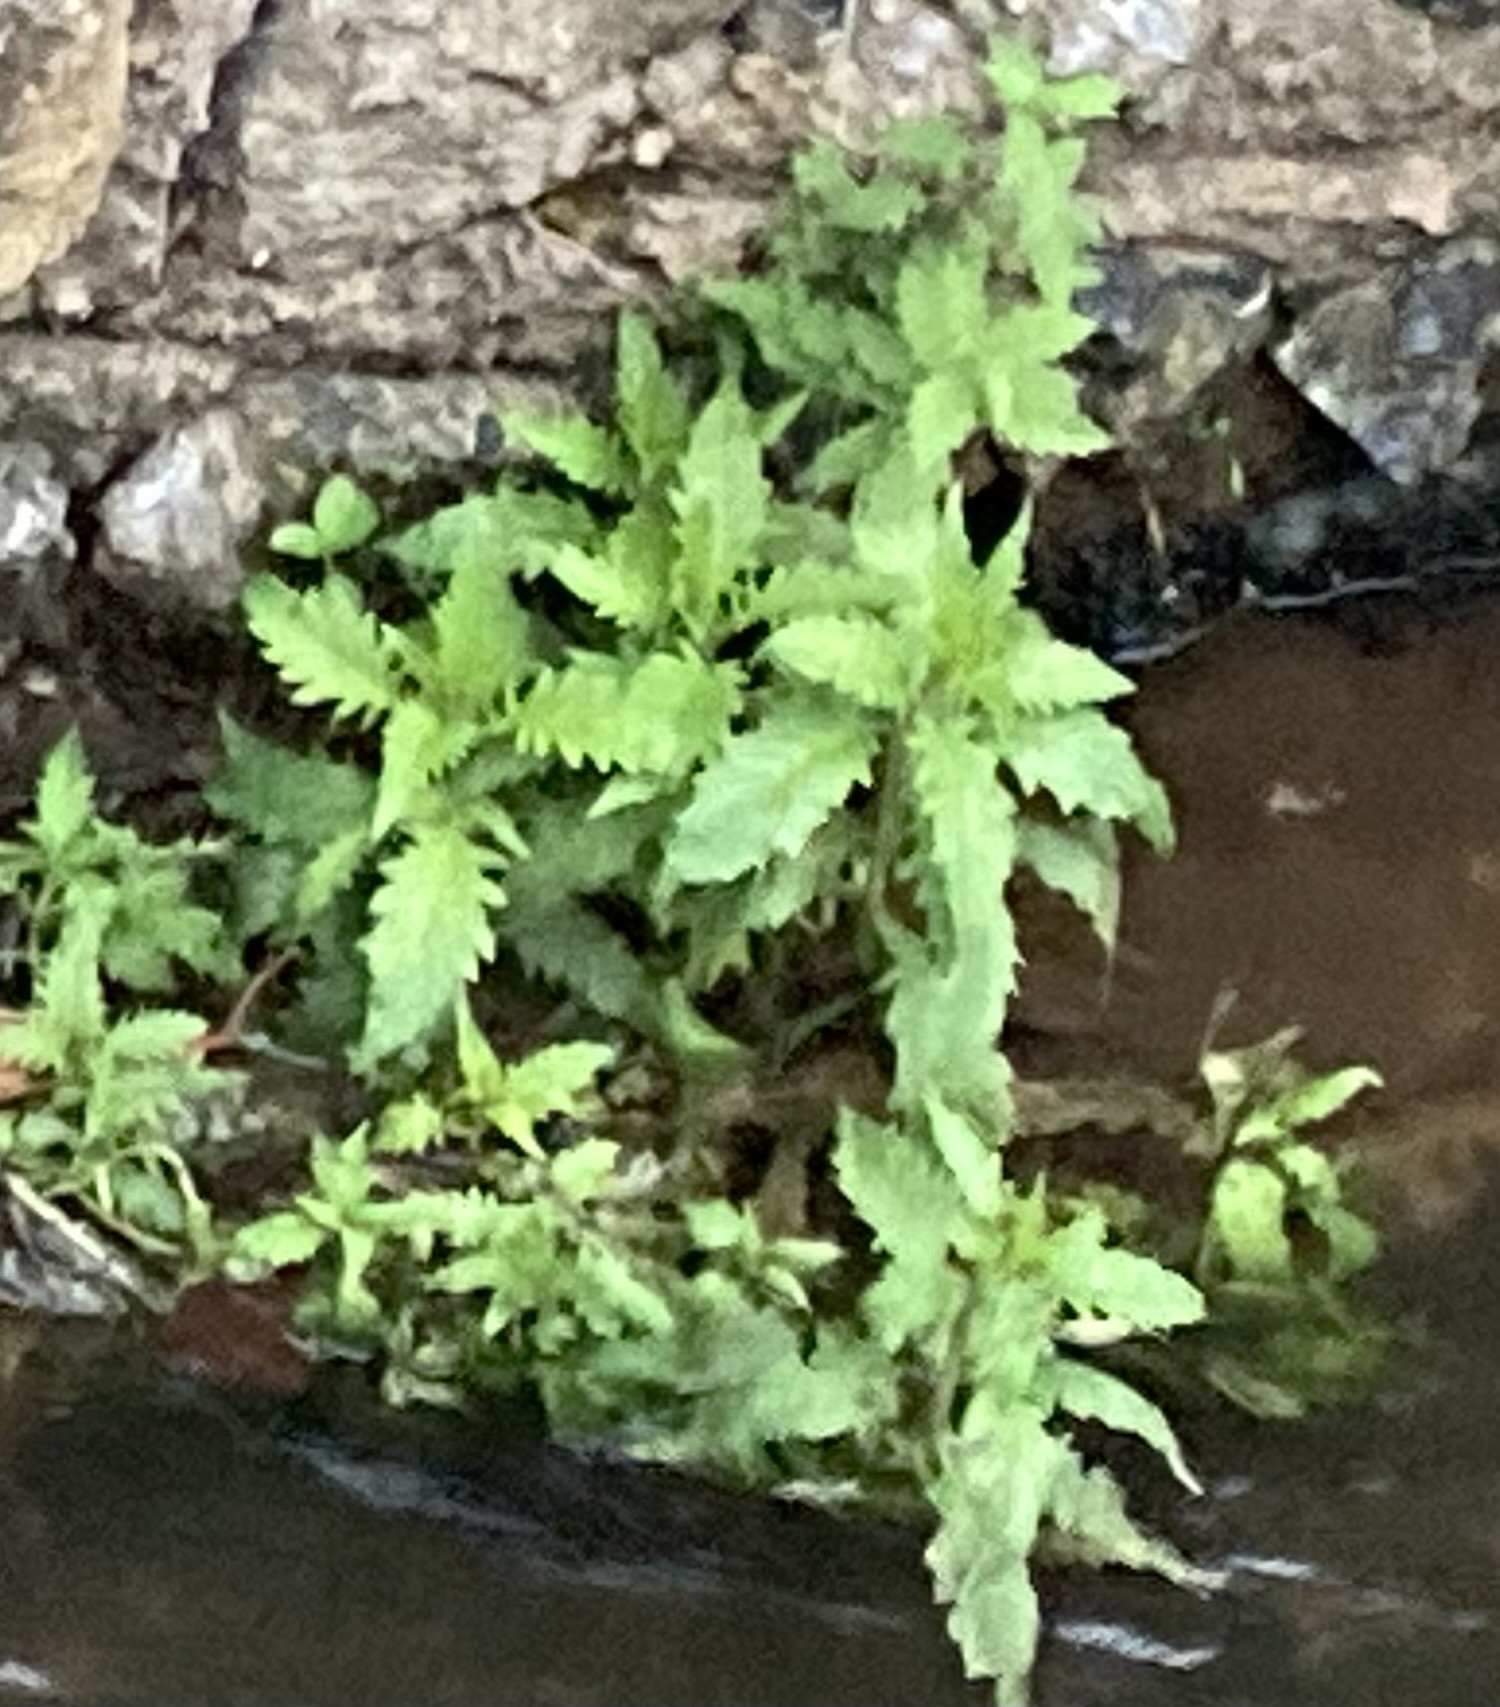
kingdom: Plantae
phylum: Tracheophyta
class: Magnoliopsida
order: Lamiales
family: Lamiaceae
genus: Lycopus
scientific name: Lycopus europaeus
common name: European bugleweed
